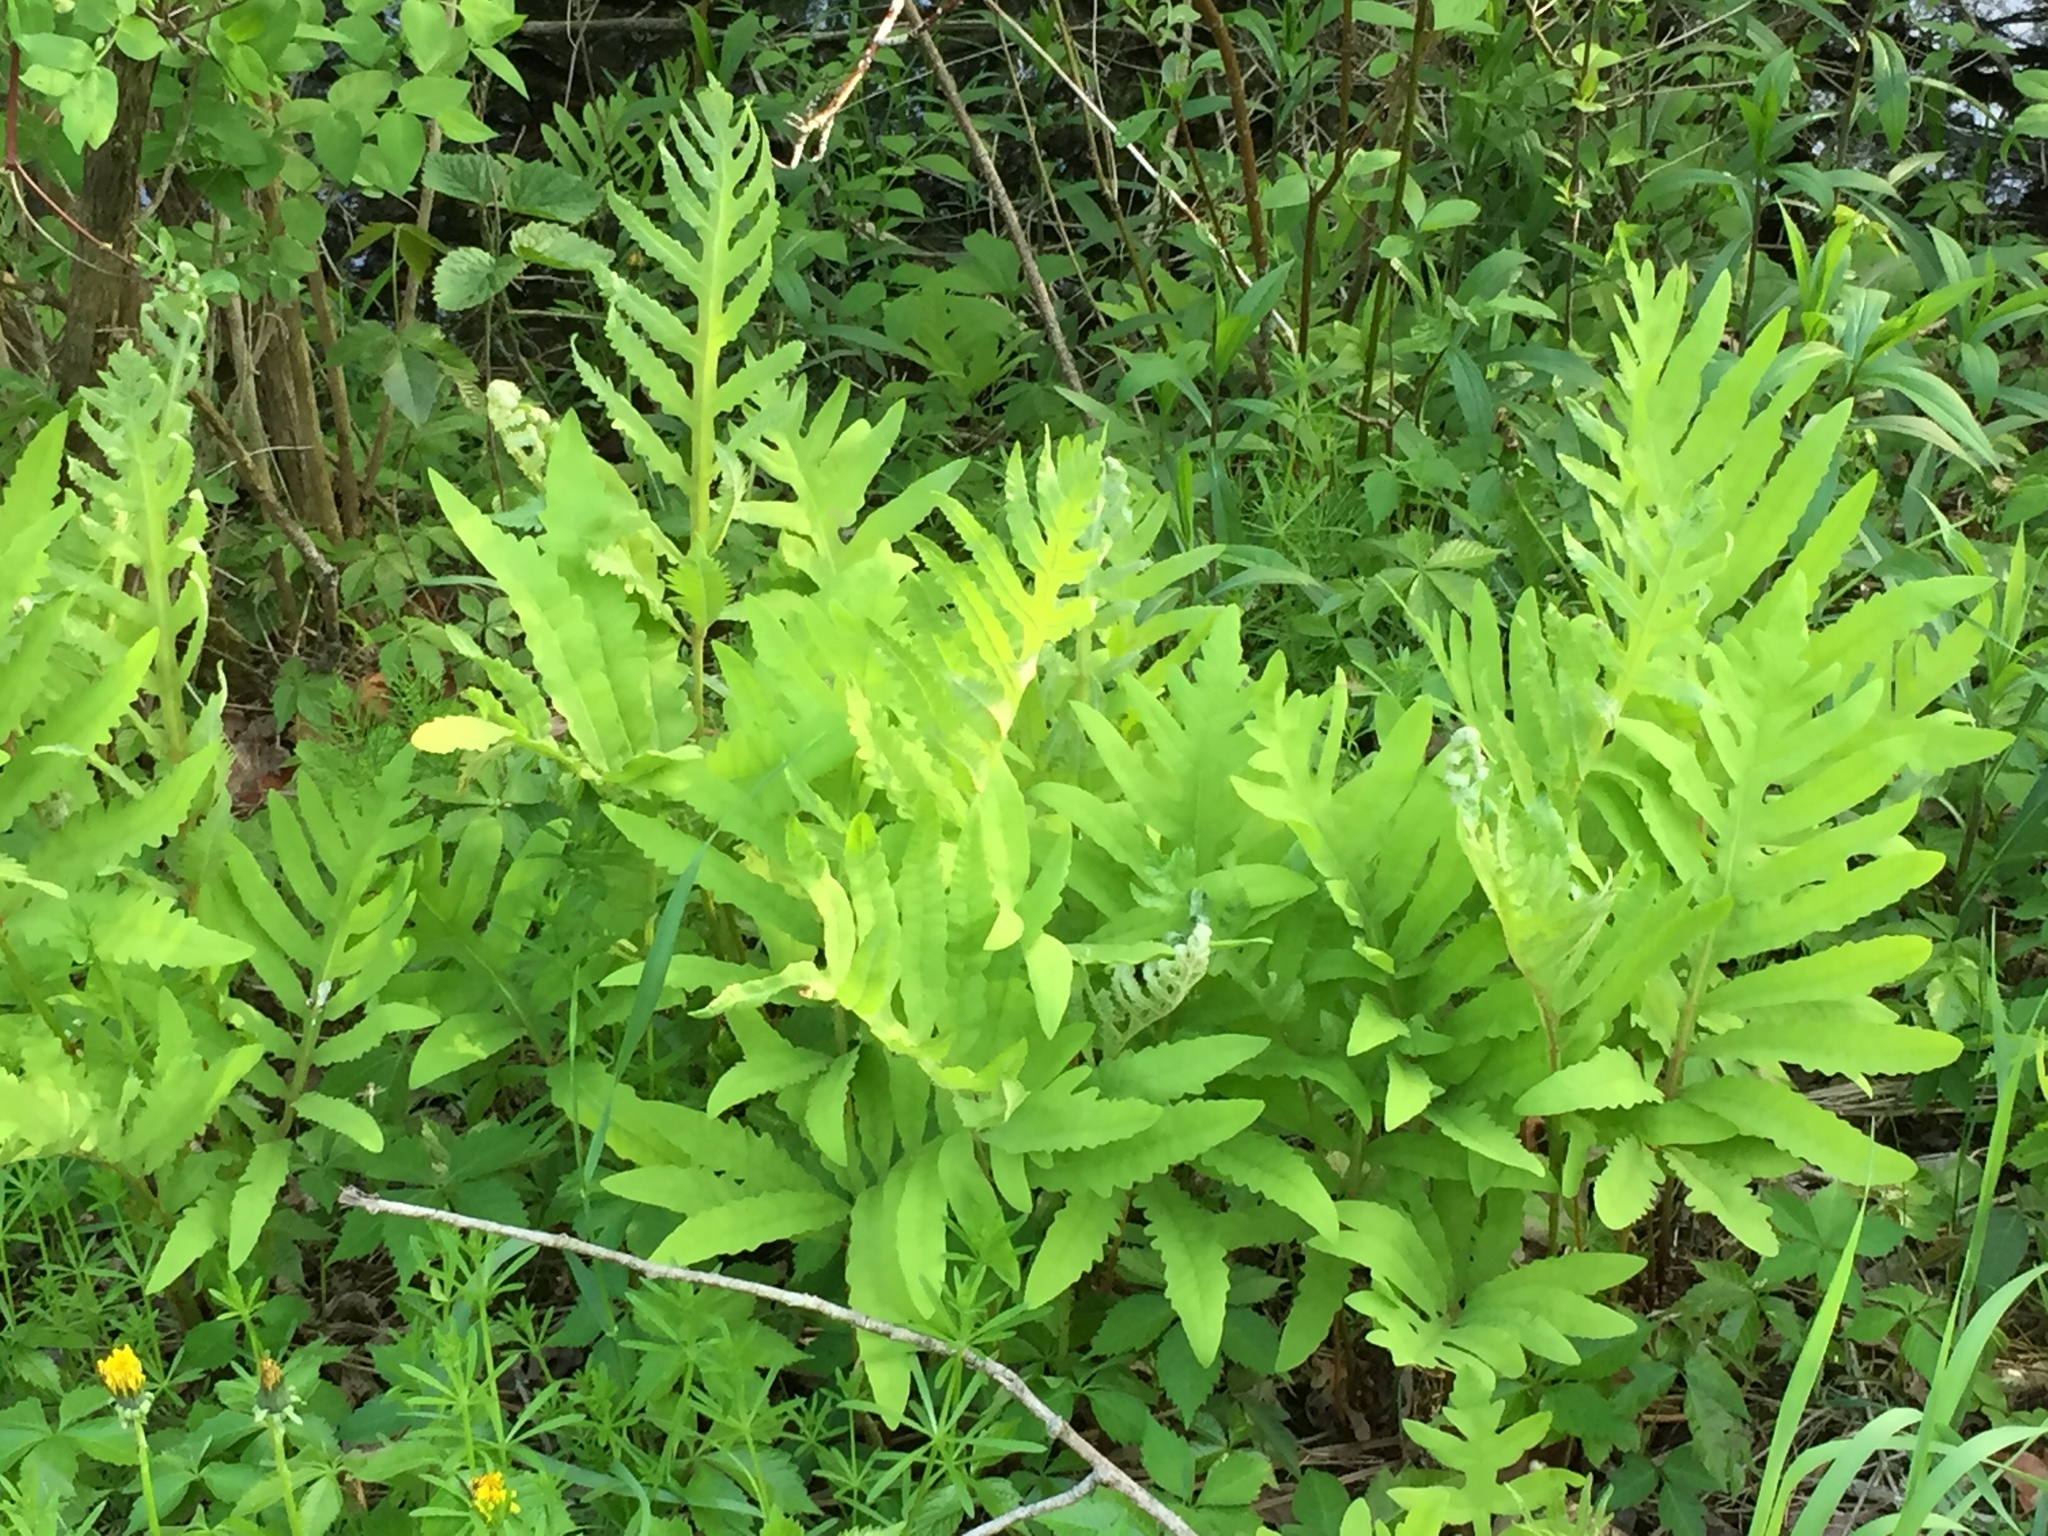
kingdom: Plantae
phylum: Tracheophyta
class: Polypodiopsida
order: Polypodiales
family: Onocleaceae
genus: Onoclea
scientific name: Onoclea sensibilis
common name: Sensitive fern
